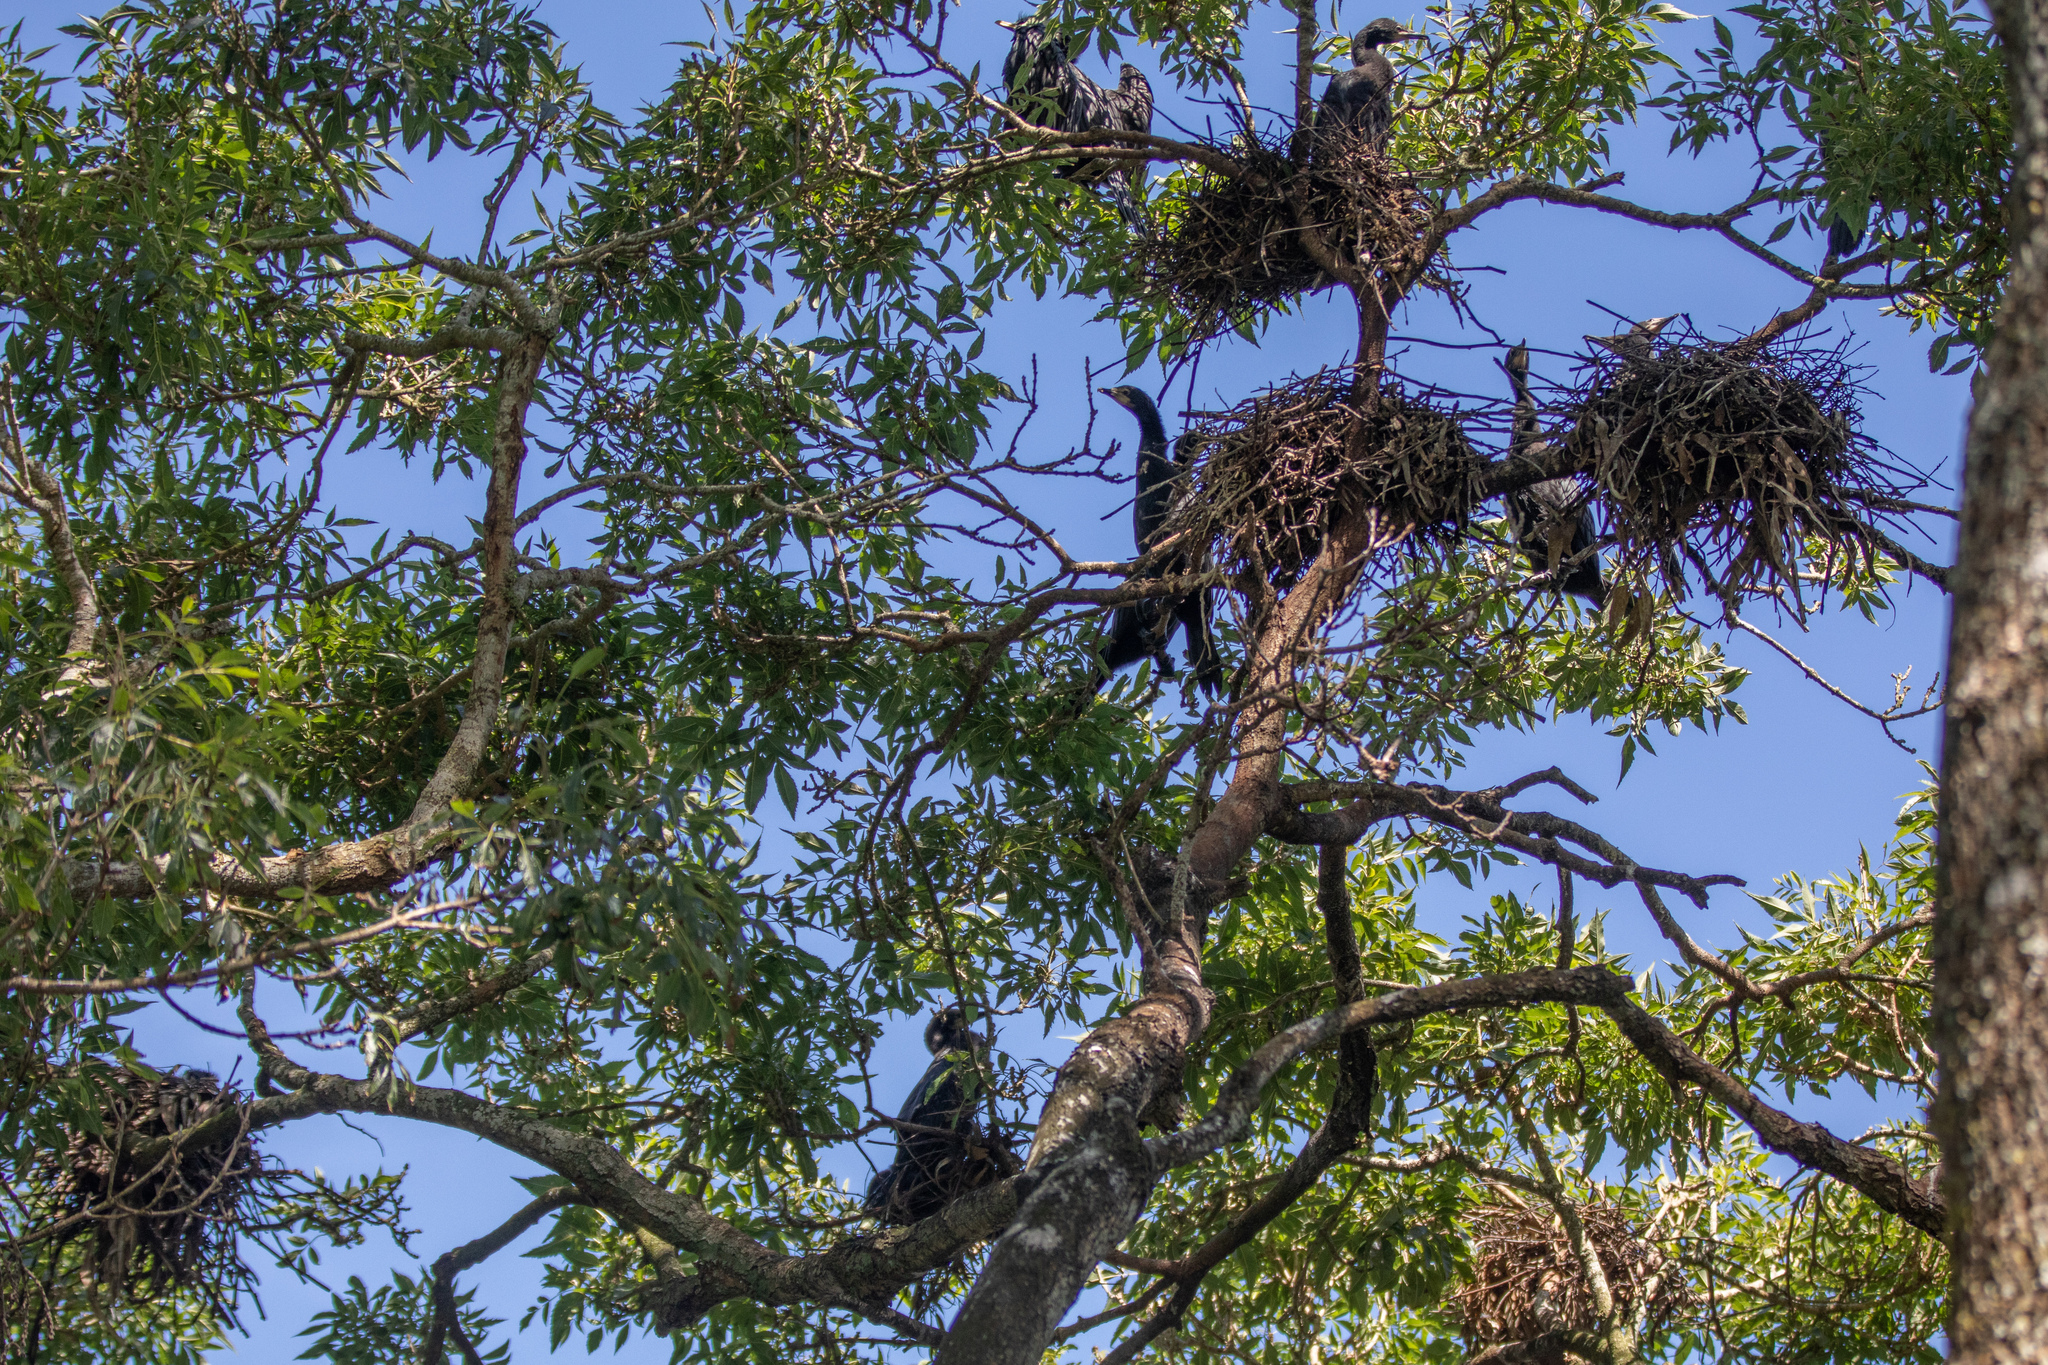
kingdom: Animalia
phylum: Chordata
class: Aves
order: Suliformes
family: Phalacrocoracidae
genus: Microcarbo
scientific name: Microcarbo melanoleucos
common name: Little pied cormorant
